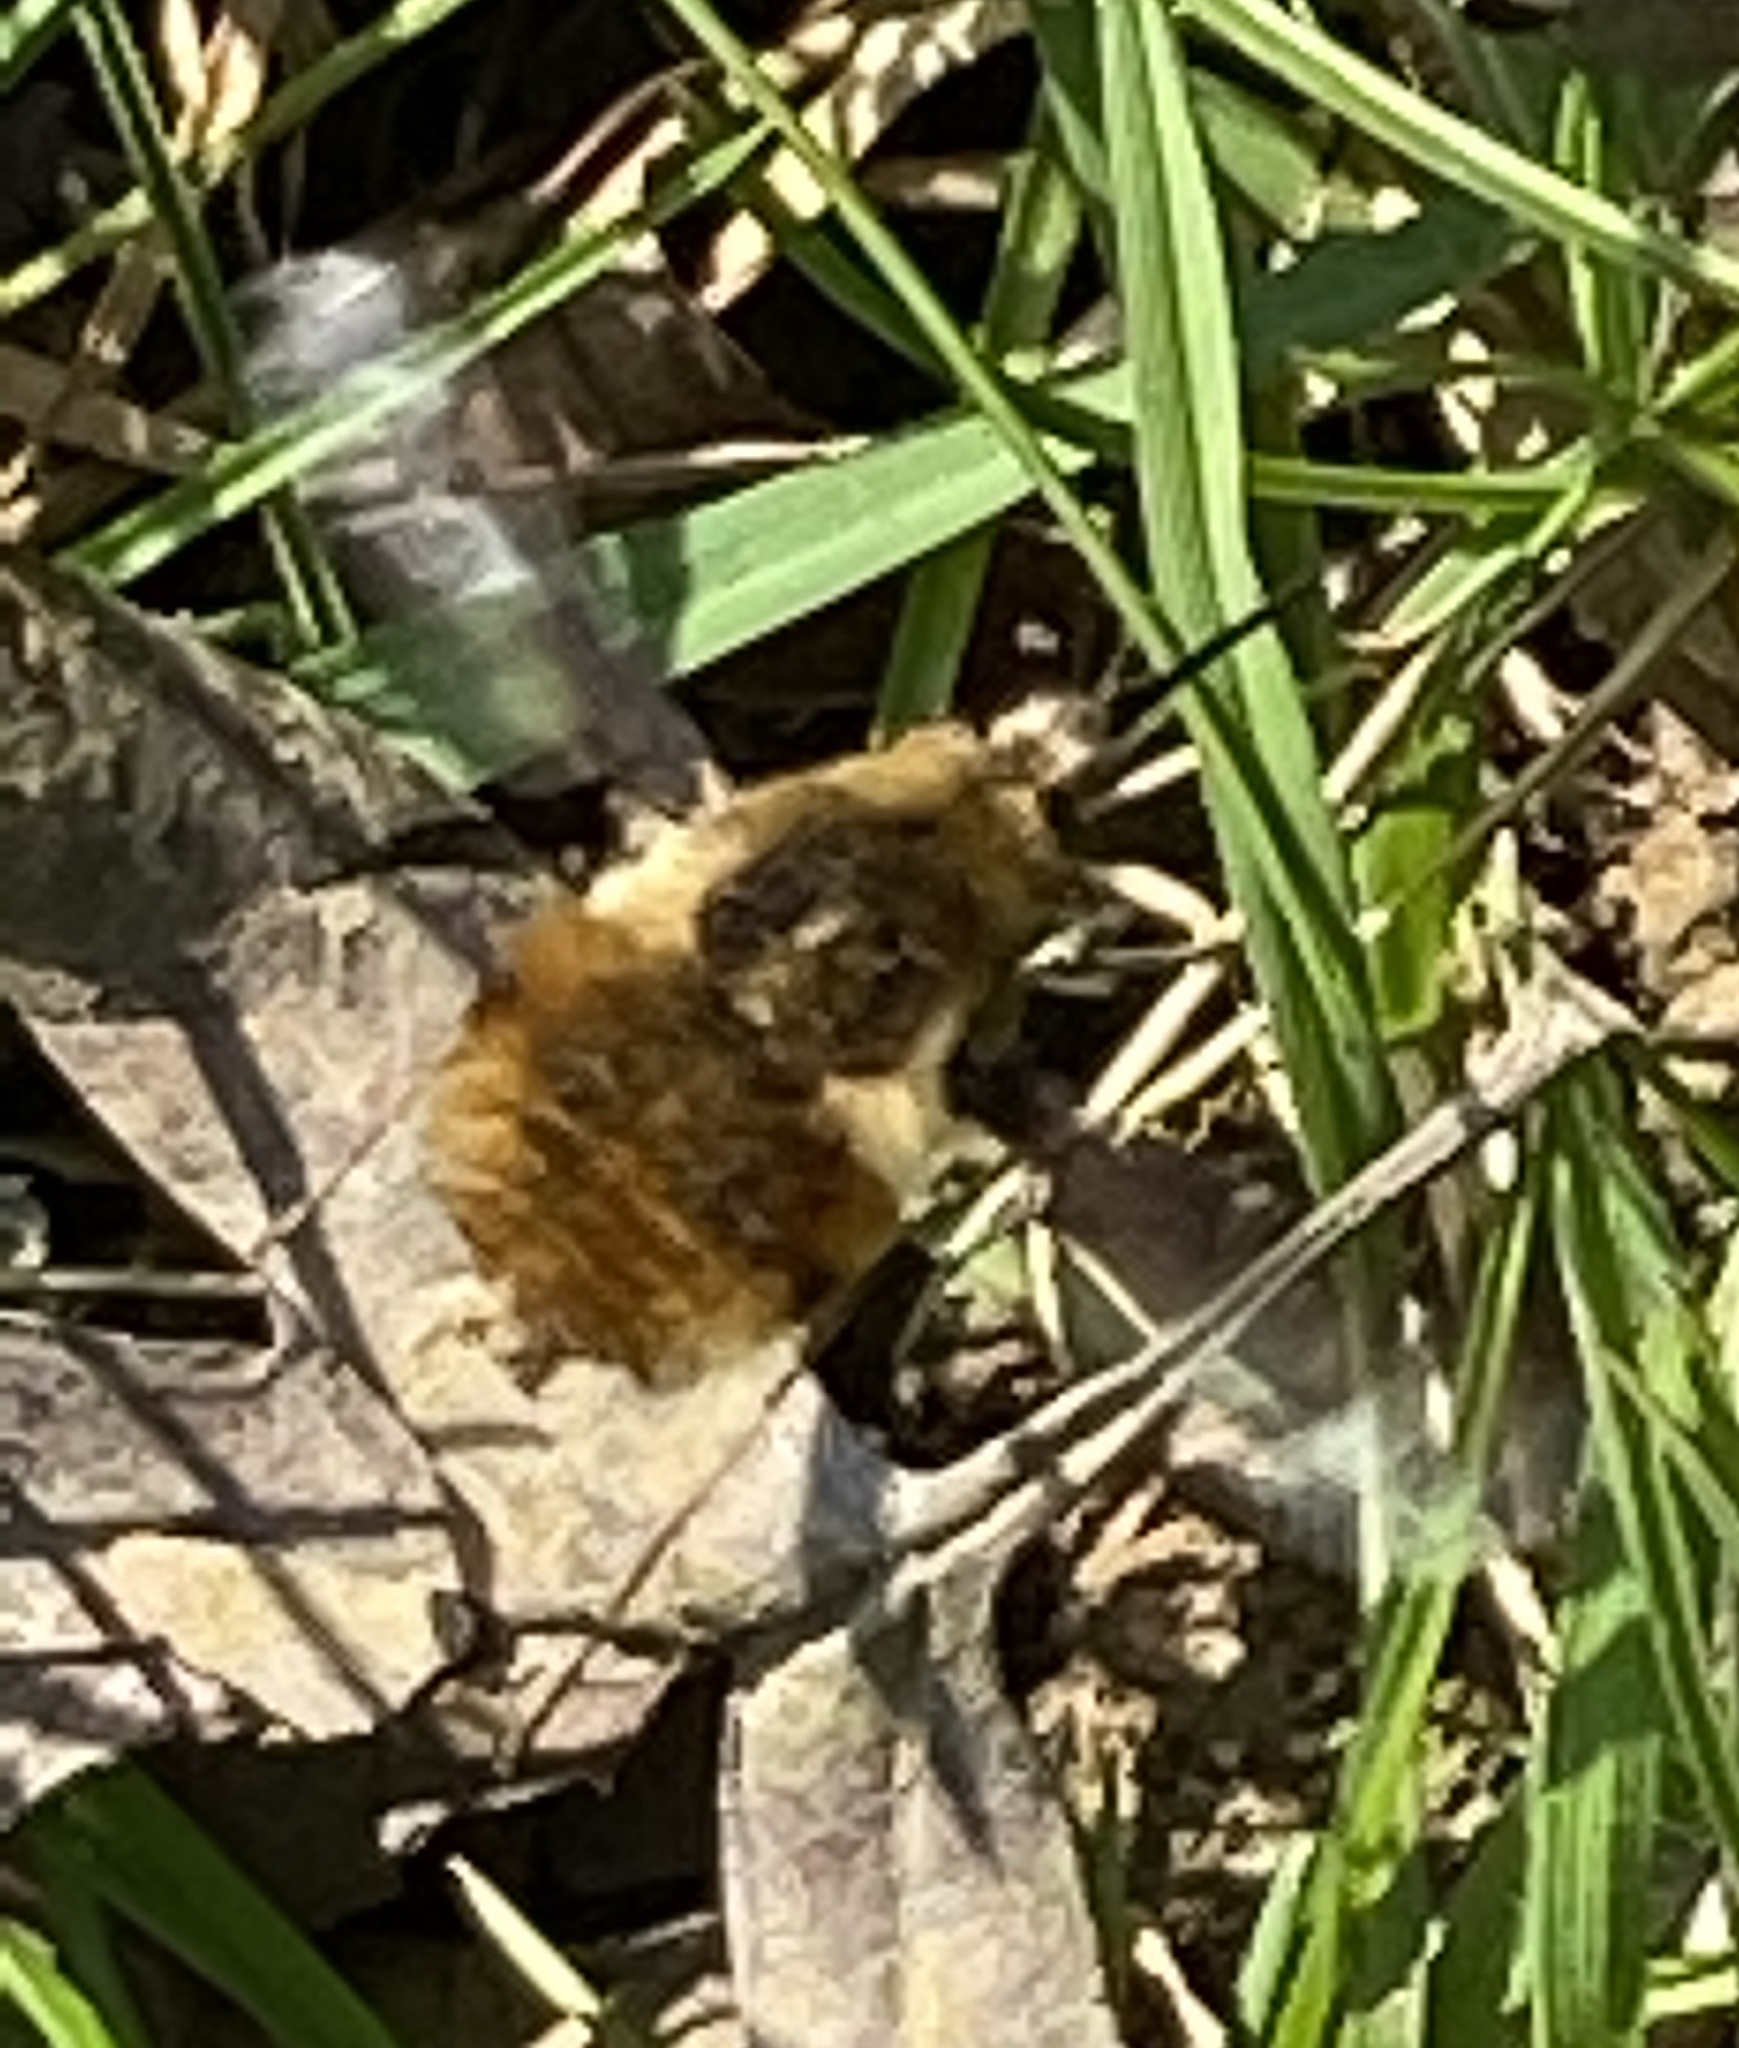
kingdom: Animalia
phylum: Arthropoda
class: Insecta
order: Diptera
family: Bombyliidae
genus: Bombylius
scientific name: Bombylius major
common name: Bee fly
